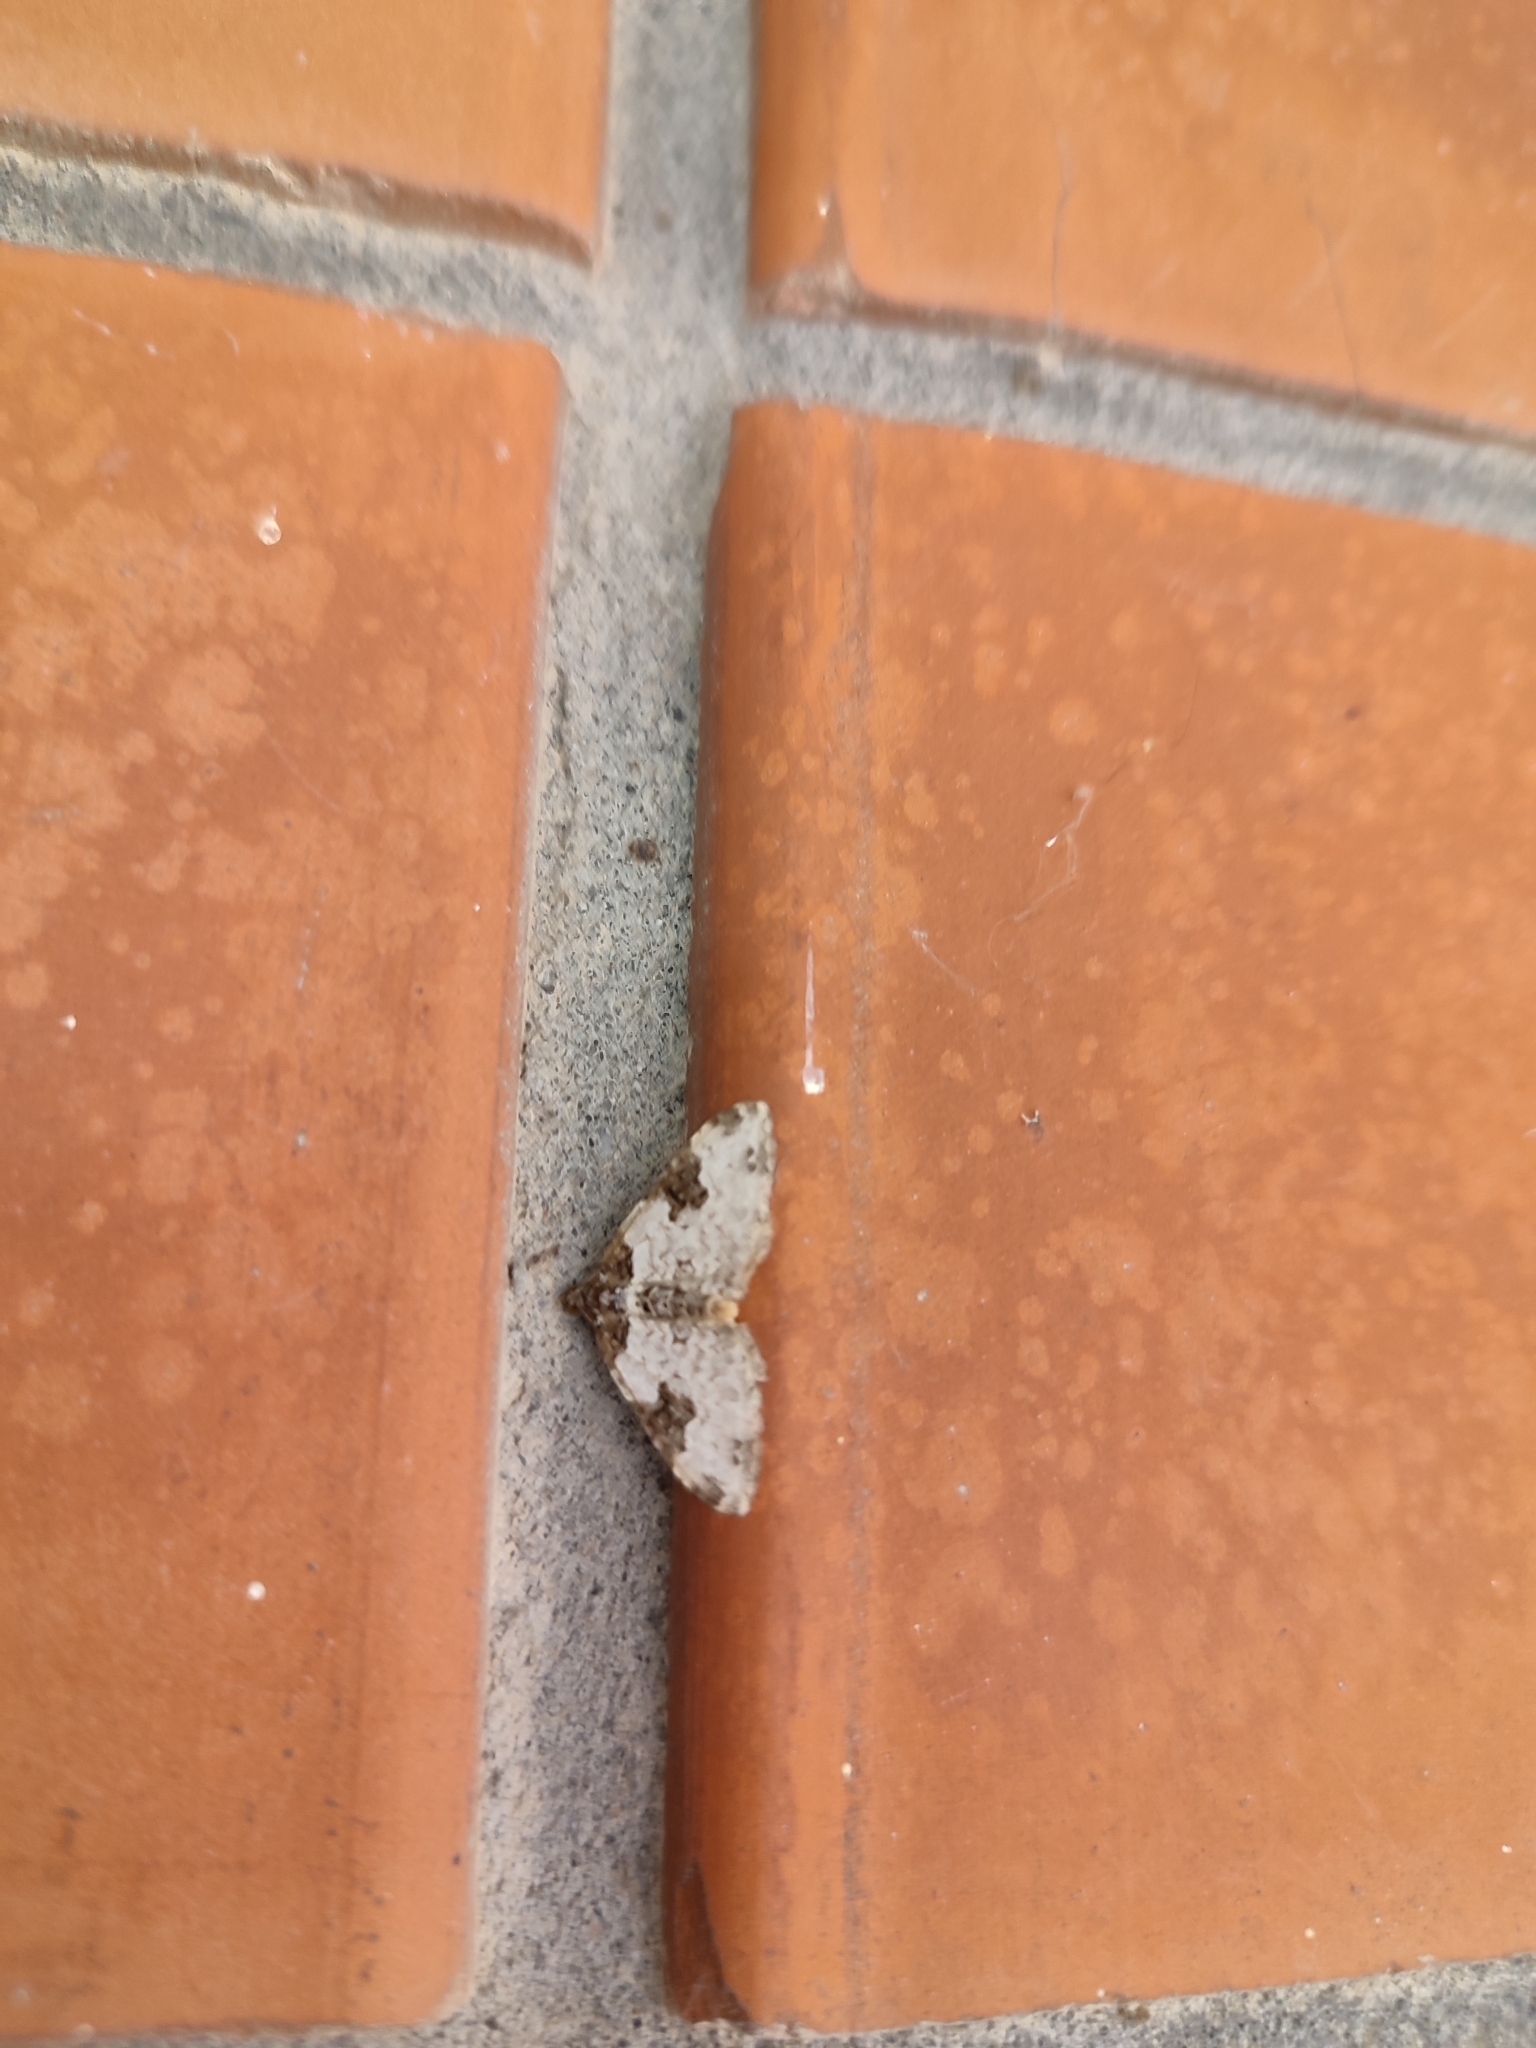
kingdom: Animalia
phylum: Arthropoda
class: Insecta
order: Lepidoptera
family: Geometridae
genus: Xanthorhoe
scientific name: Xanthorhoe fluctuata
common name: Garden carpet
